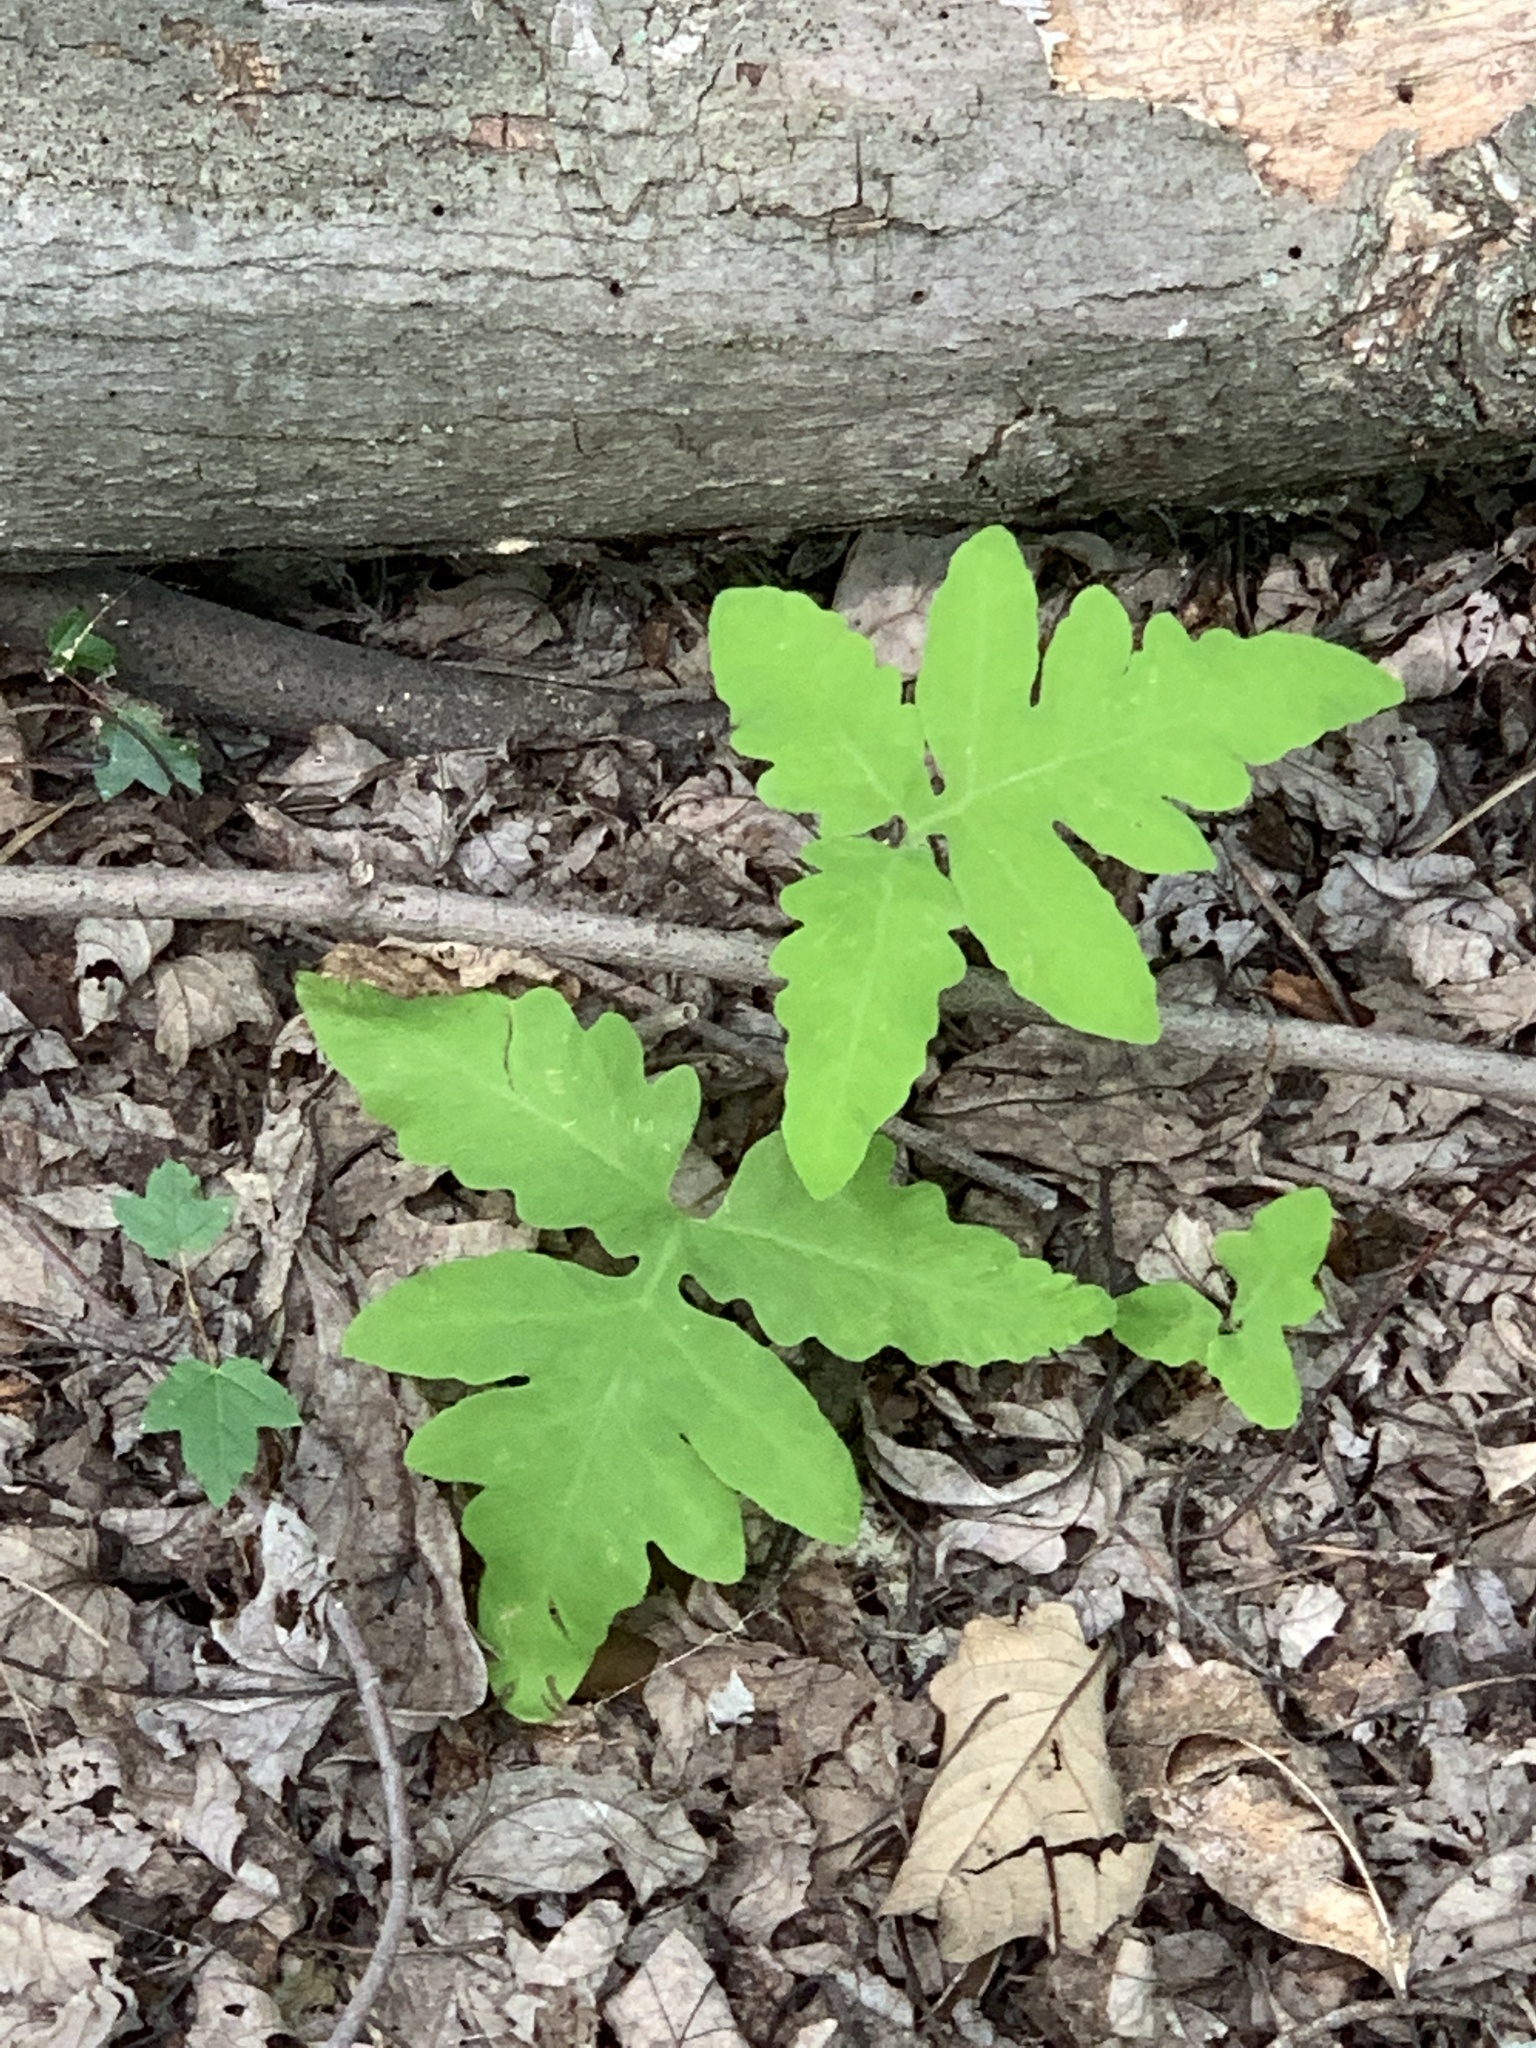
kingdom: Plantae
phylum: Tracheophyta
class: Polypodiopsida
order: Polypodiales
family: Onocleaceae
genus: Onoclea
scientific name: Onoclea sensibilis
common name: Sensitive fern
